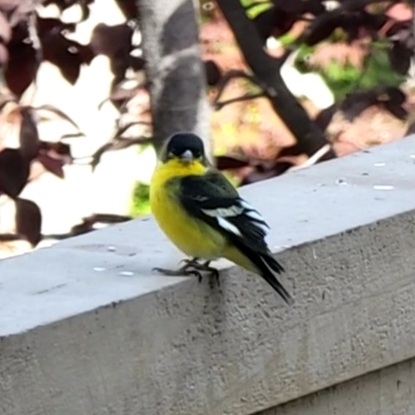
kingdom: Animalia
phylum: Chordata
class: Aves
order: Passeriformes
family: Fringillidae
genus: Spinus
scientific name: Spinus psaltria
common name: Lesser goldfinch
